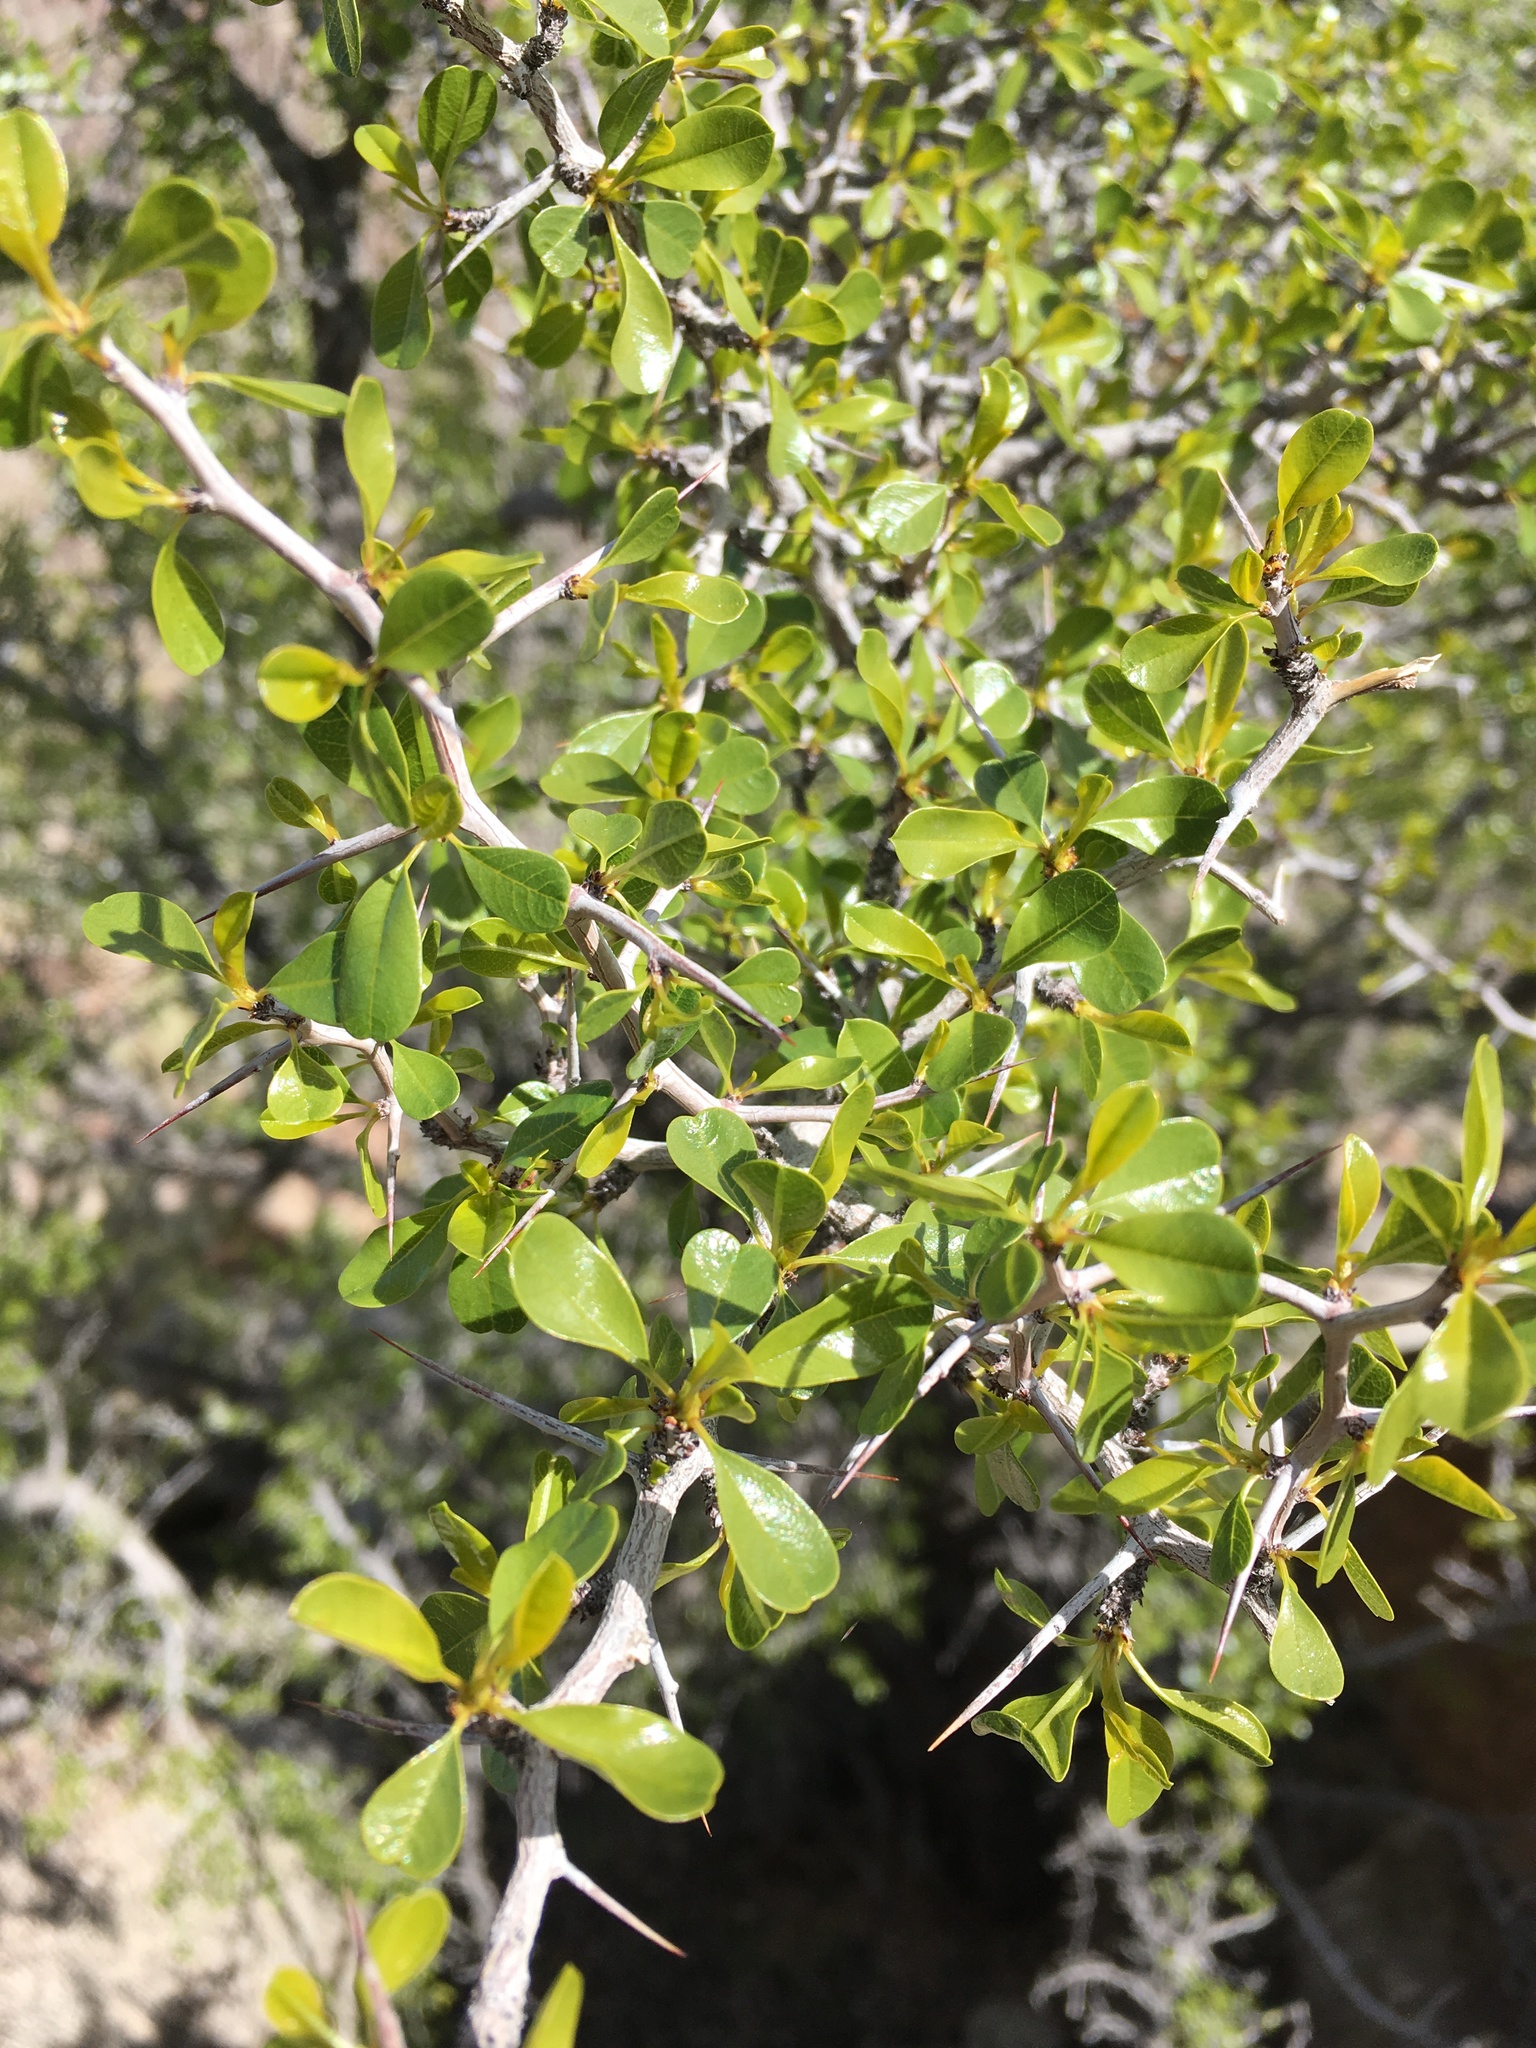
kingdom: Plantae
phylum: Tracheophyta
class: Magnoliopsida
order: Rosales
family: Rhamnaceae
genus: Pseudoziziphus
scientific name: Pseudoziziphus parryi
